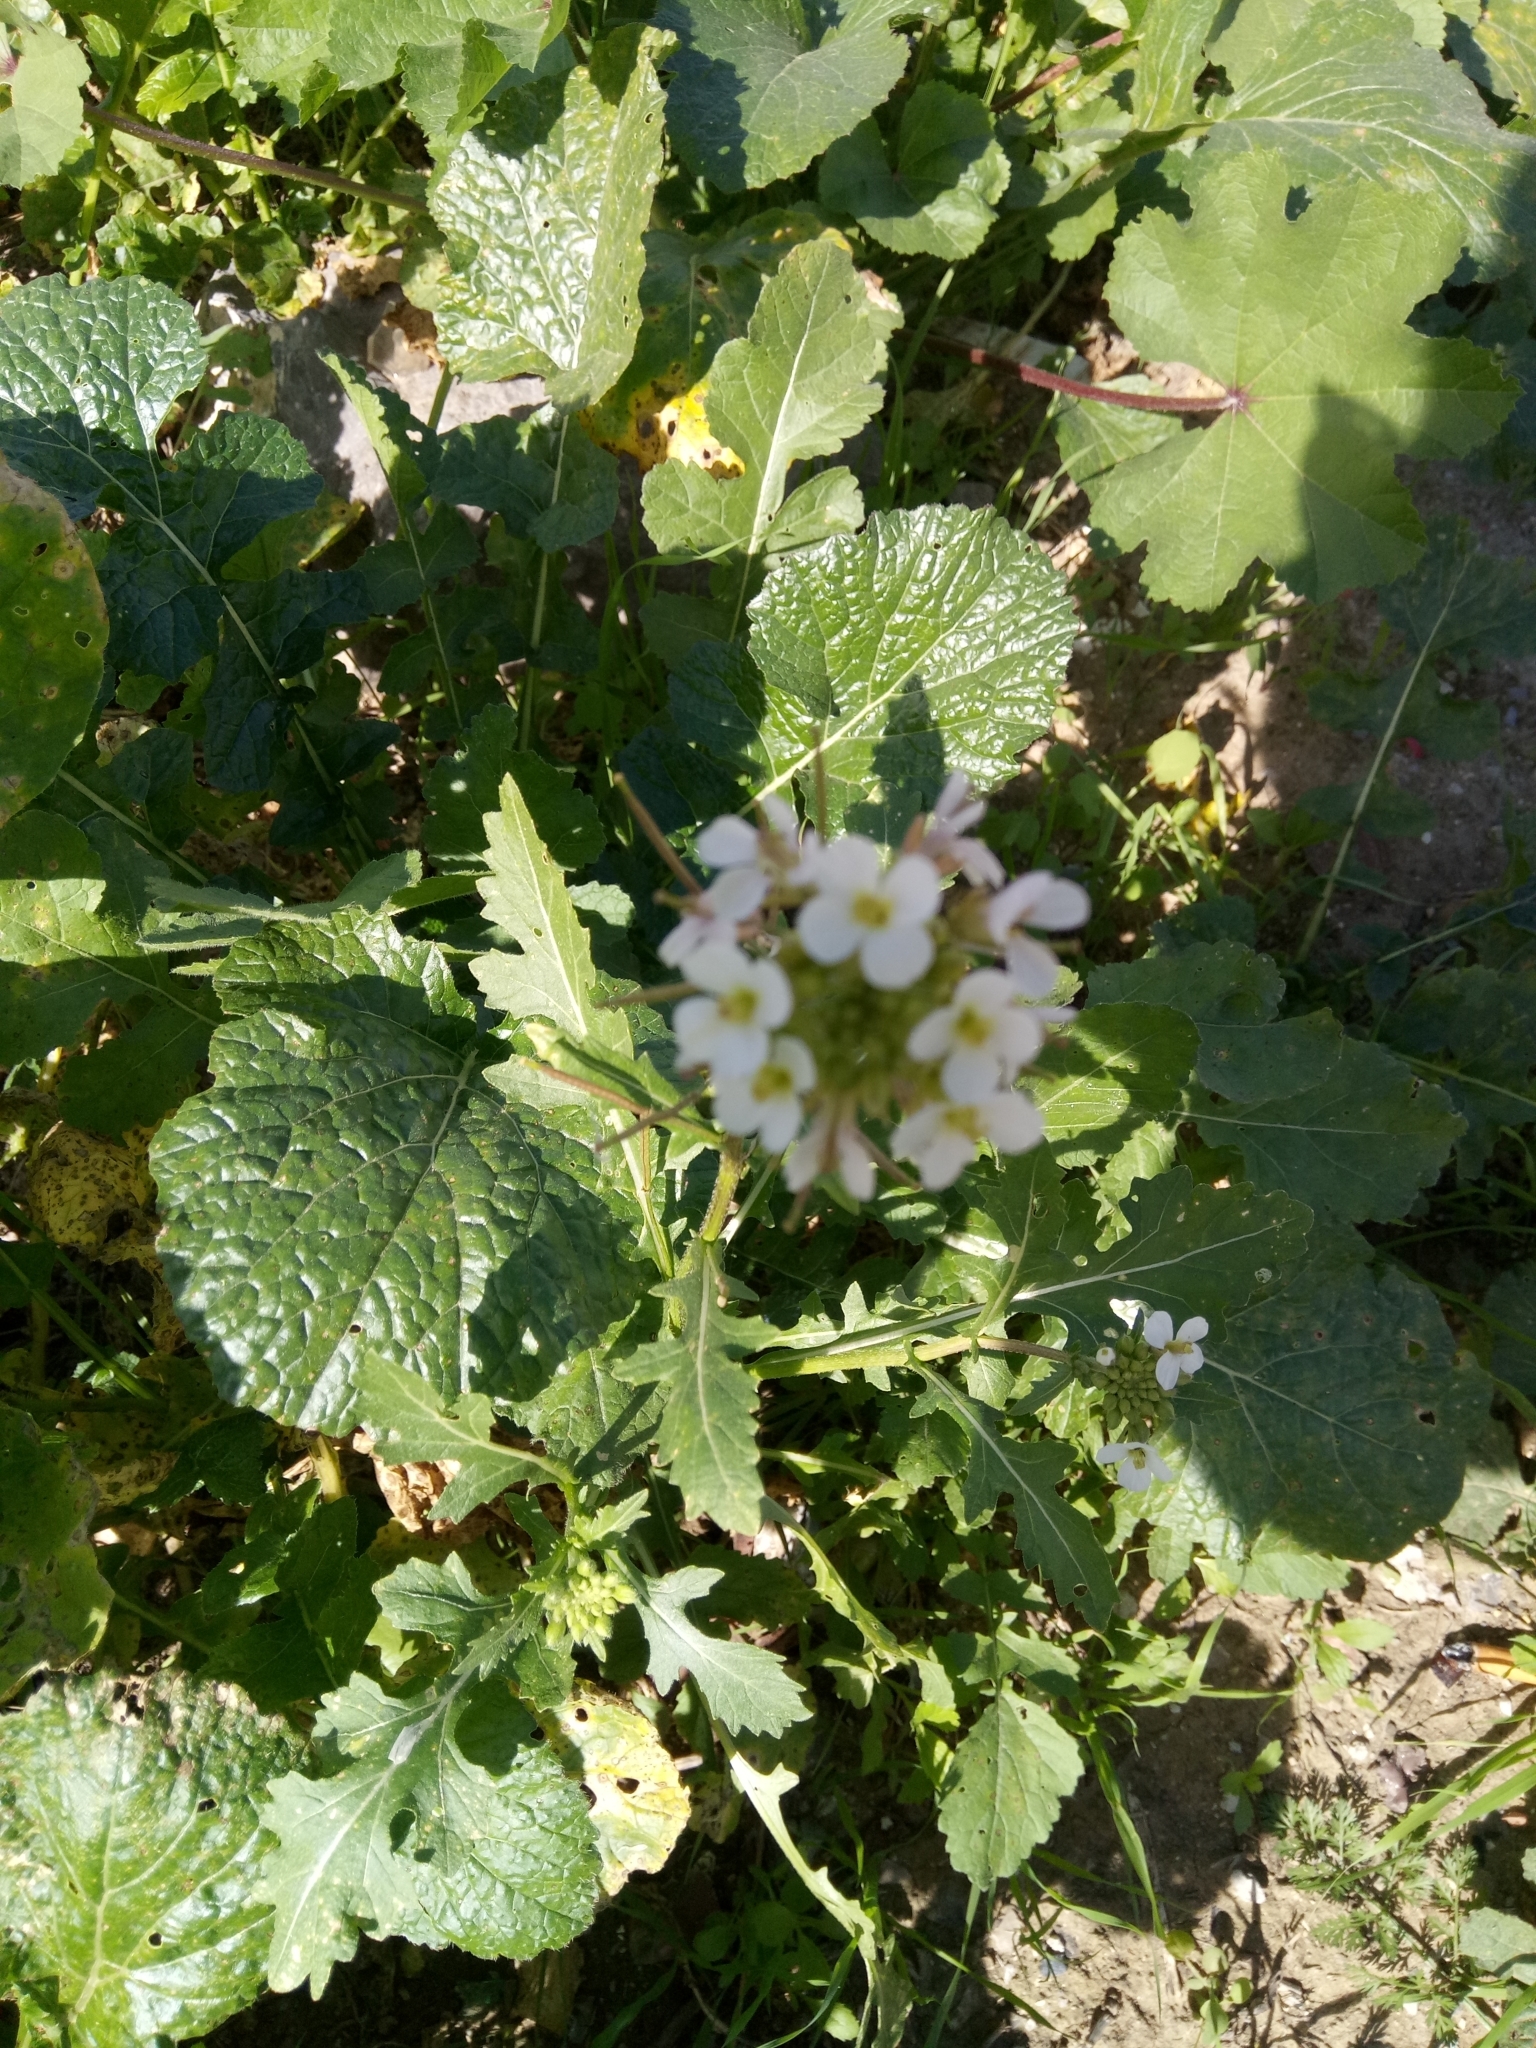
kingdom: Plantae
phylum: Tracheophyta
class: Magnoliopsida
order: Brassicales
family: Brassicaceae
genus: Diplotaxis
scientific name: Diplotaxis erucoides
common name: White rocket
